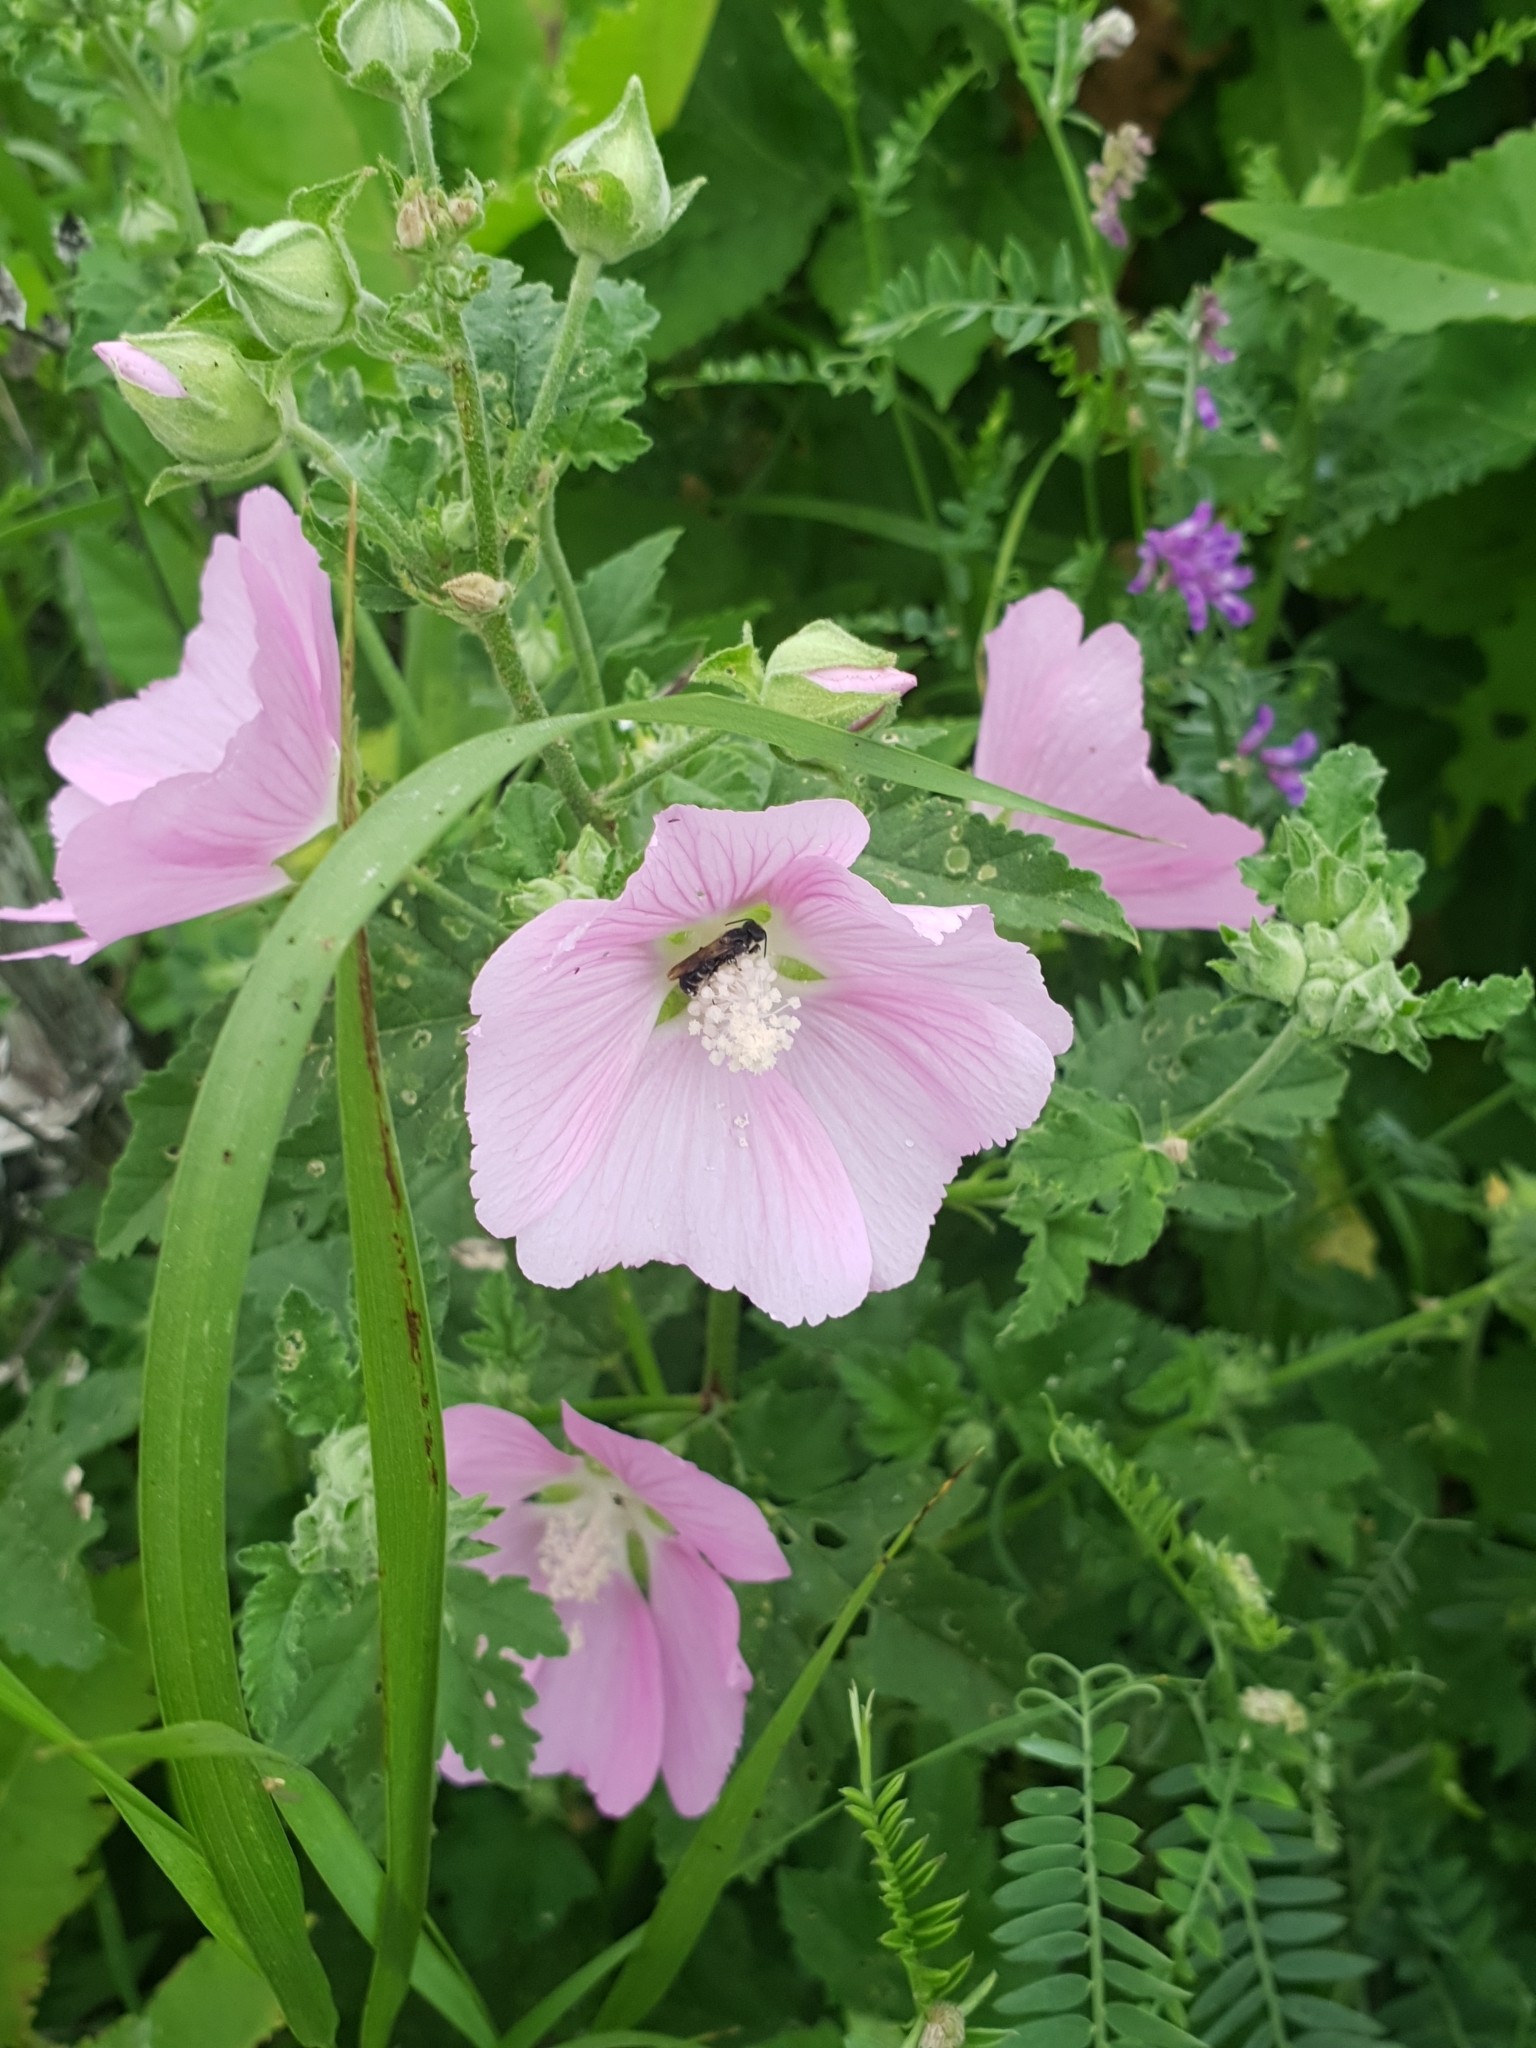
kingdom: Plantae
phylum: Tracheophyta
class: Magnoliopsida
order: Malvales
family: Malvaceae
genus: Malva
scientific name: Malva thuringiaca
